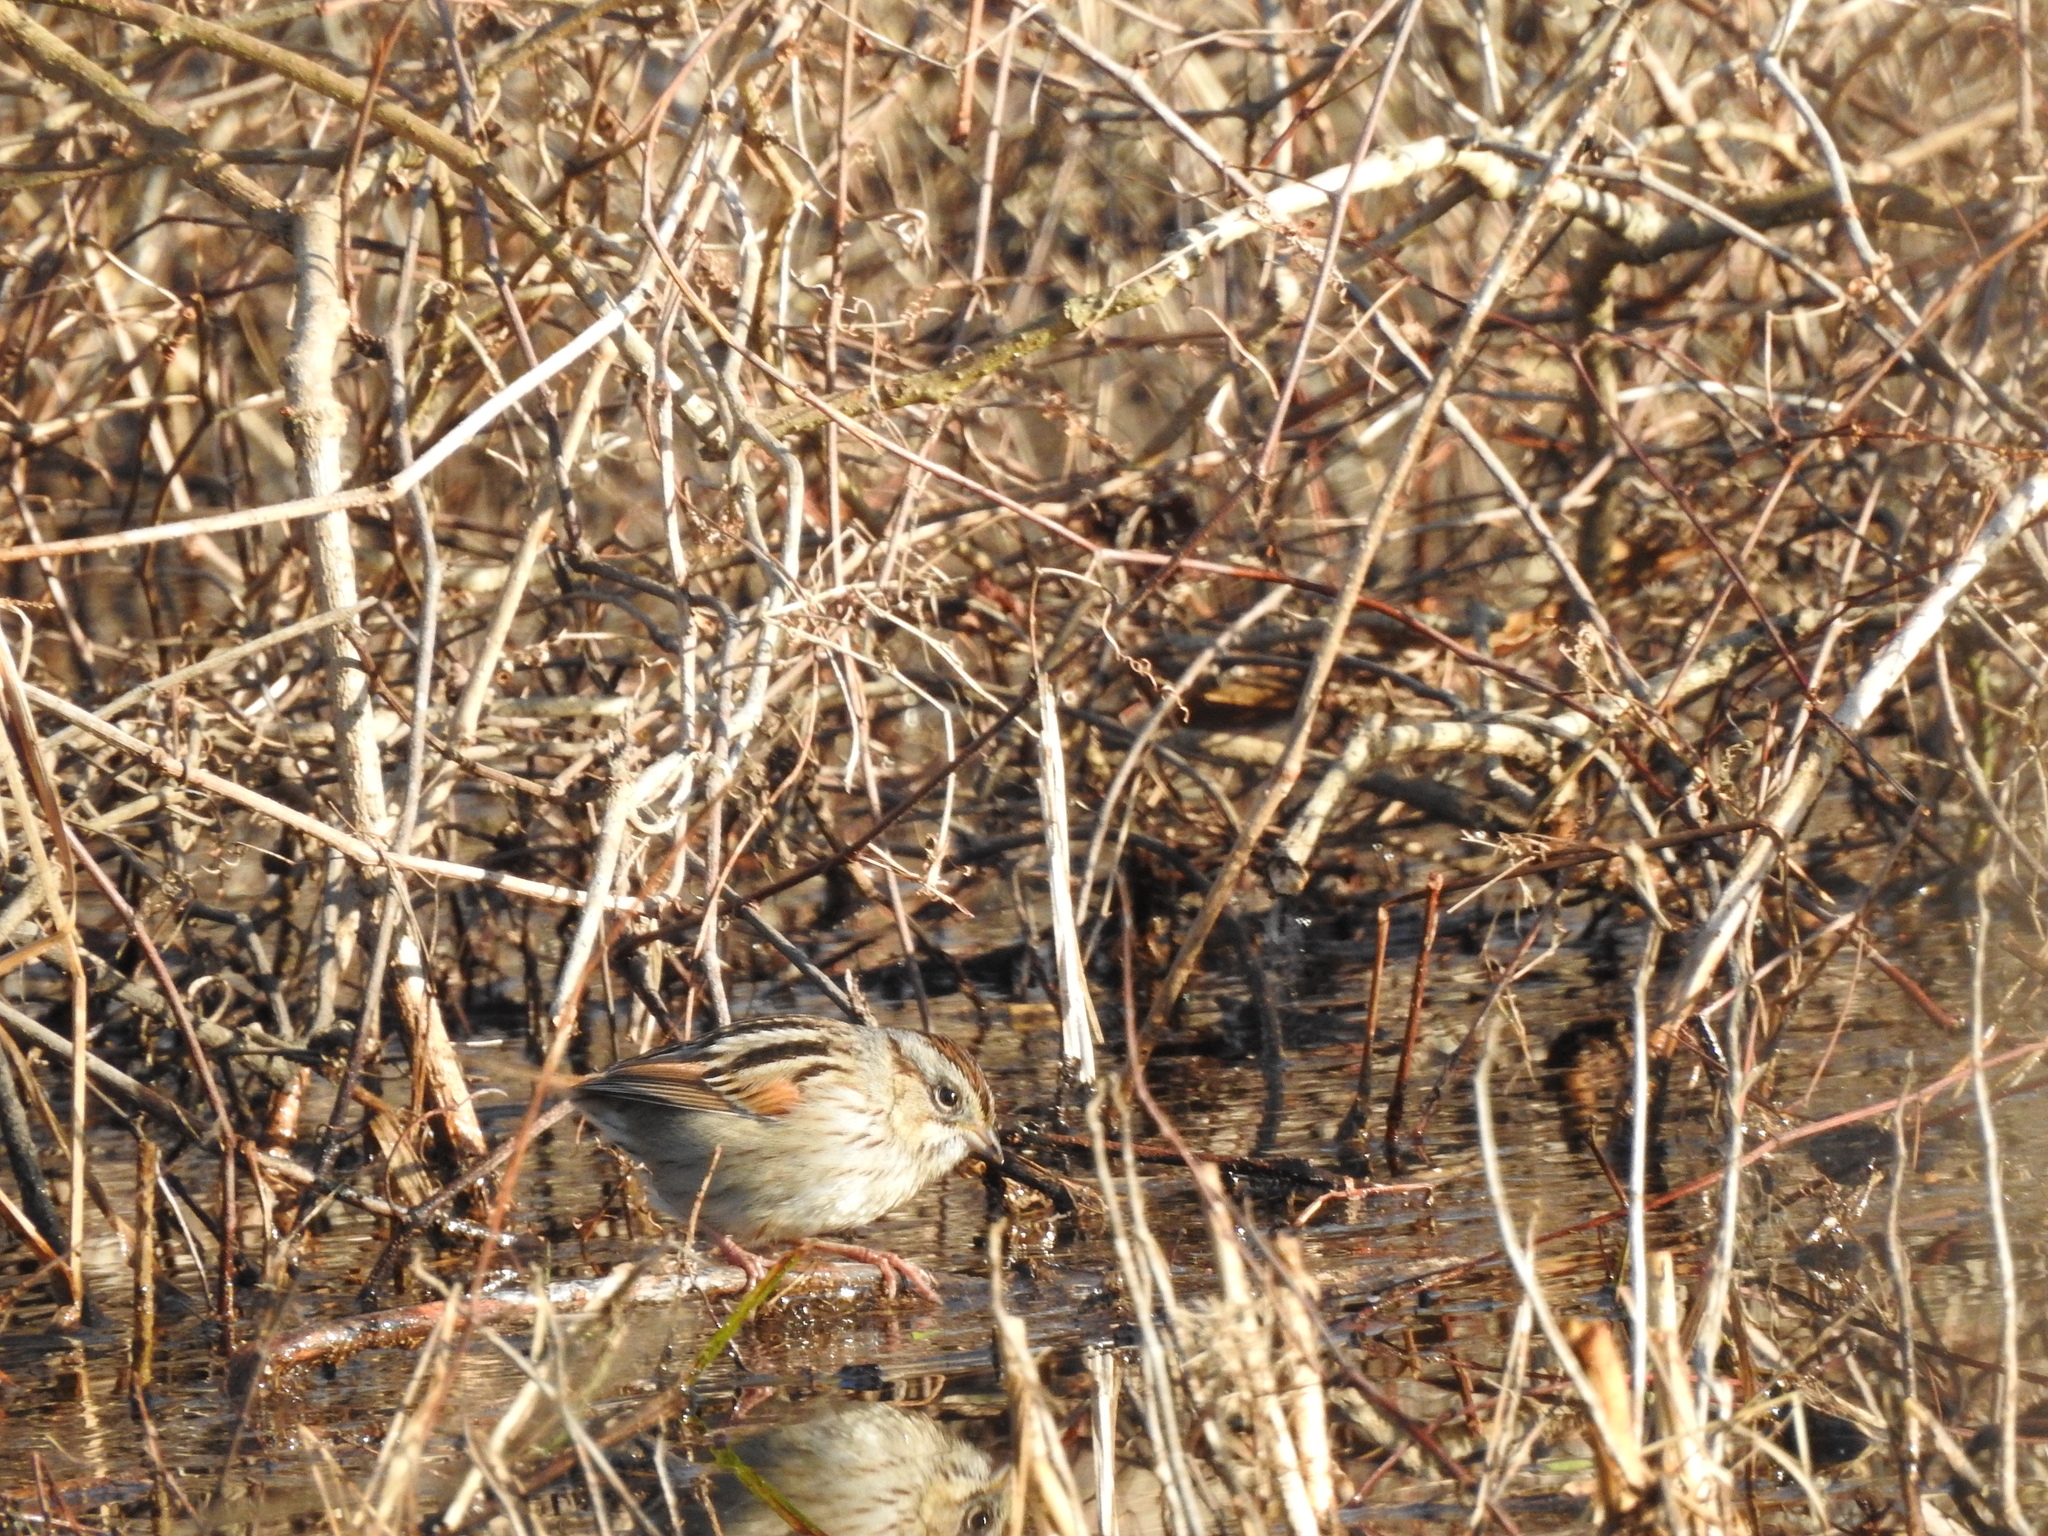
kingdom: Animalia
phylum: Chordata
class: Aves
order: Passeriformes
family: Passerellidae
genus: Melospiza
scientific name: Melospiza georgiana
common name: Swamp sparrow
